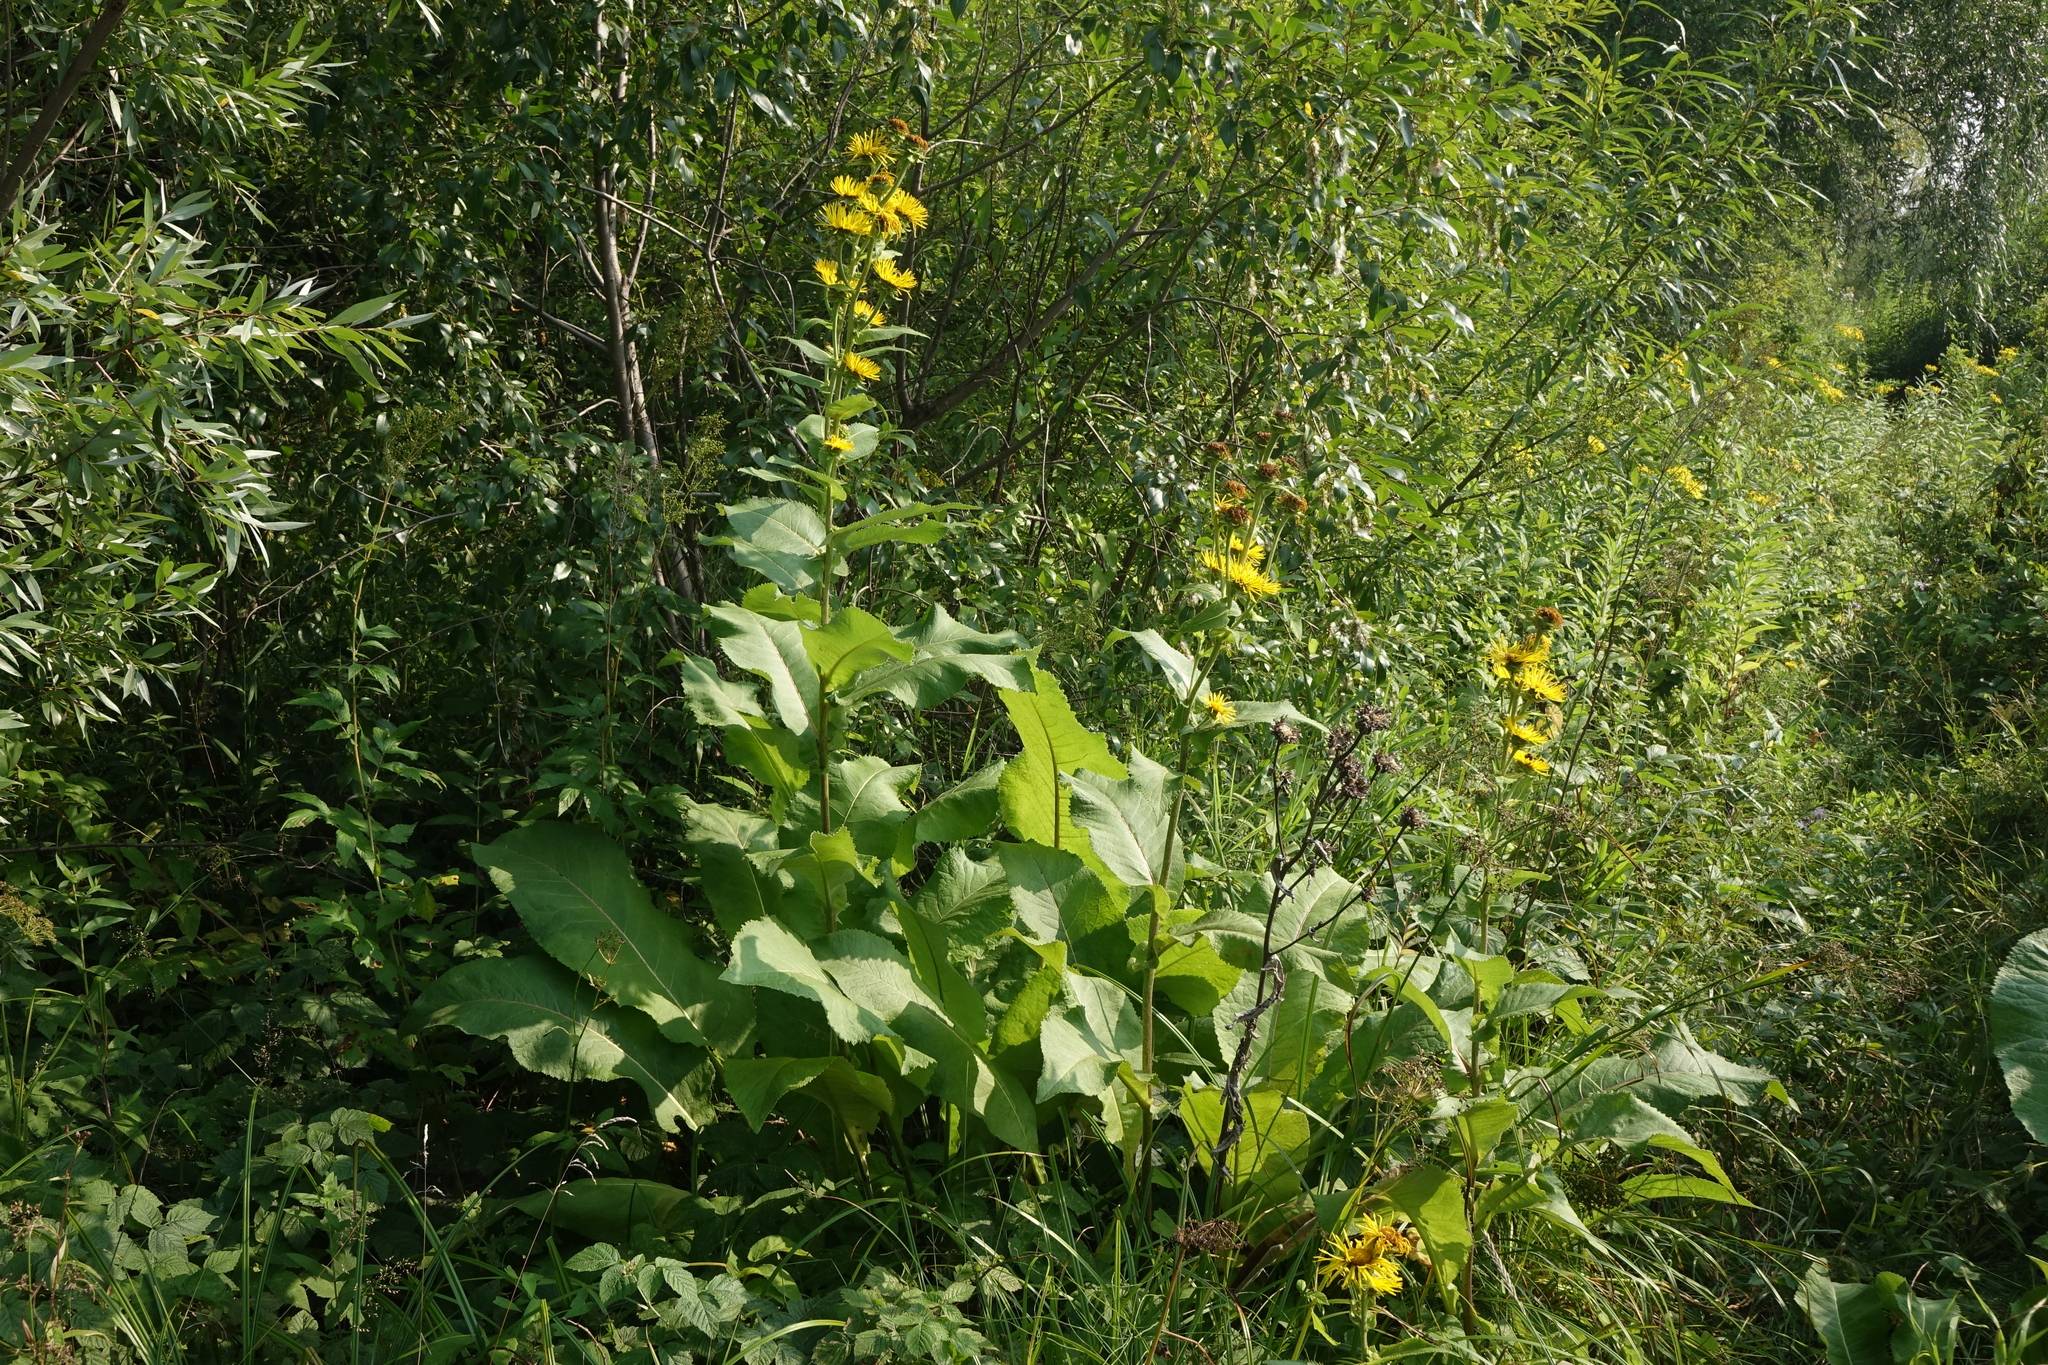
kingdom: Plantae
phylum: Tracheophyta
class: Magnoliopsida
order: Asterales
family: Asteraceae
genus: Inula
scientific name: Inula helenium
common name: Elecampane
